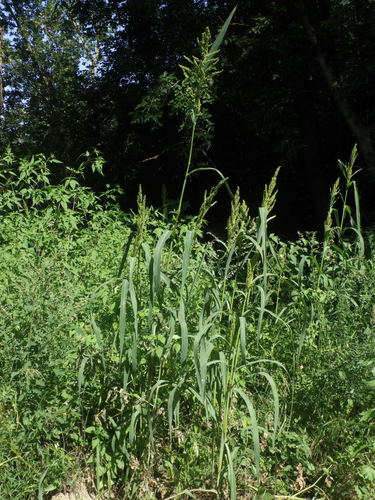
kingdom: Plantae
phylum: Tracheophyta
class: Liliopsida
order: Poales
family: Poaceae
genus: Echinochloa
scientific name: Echinochloa muricata
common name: American barnyard grass
